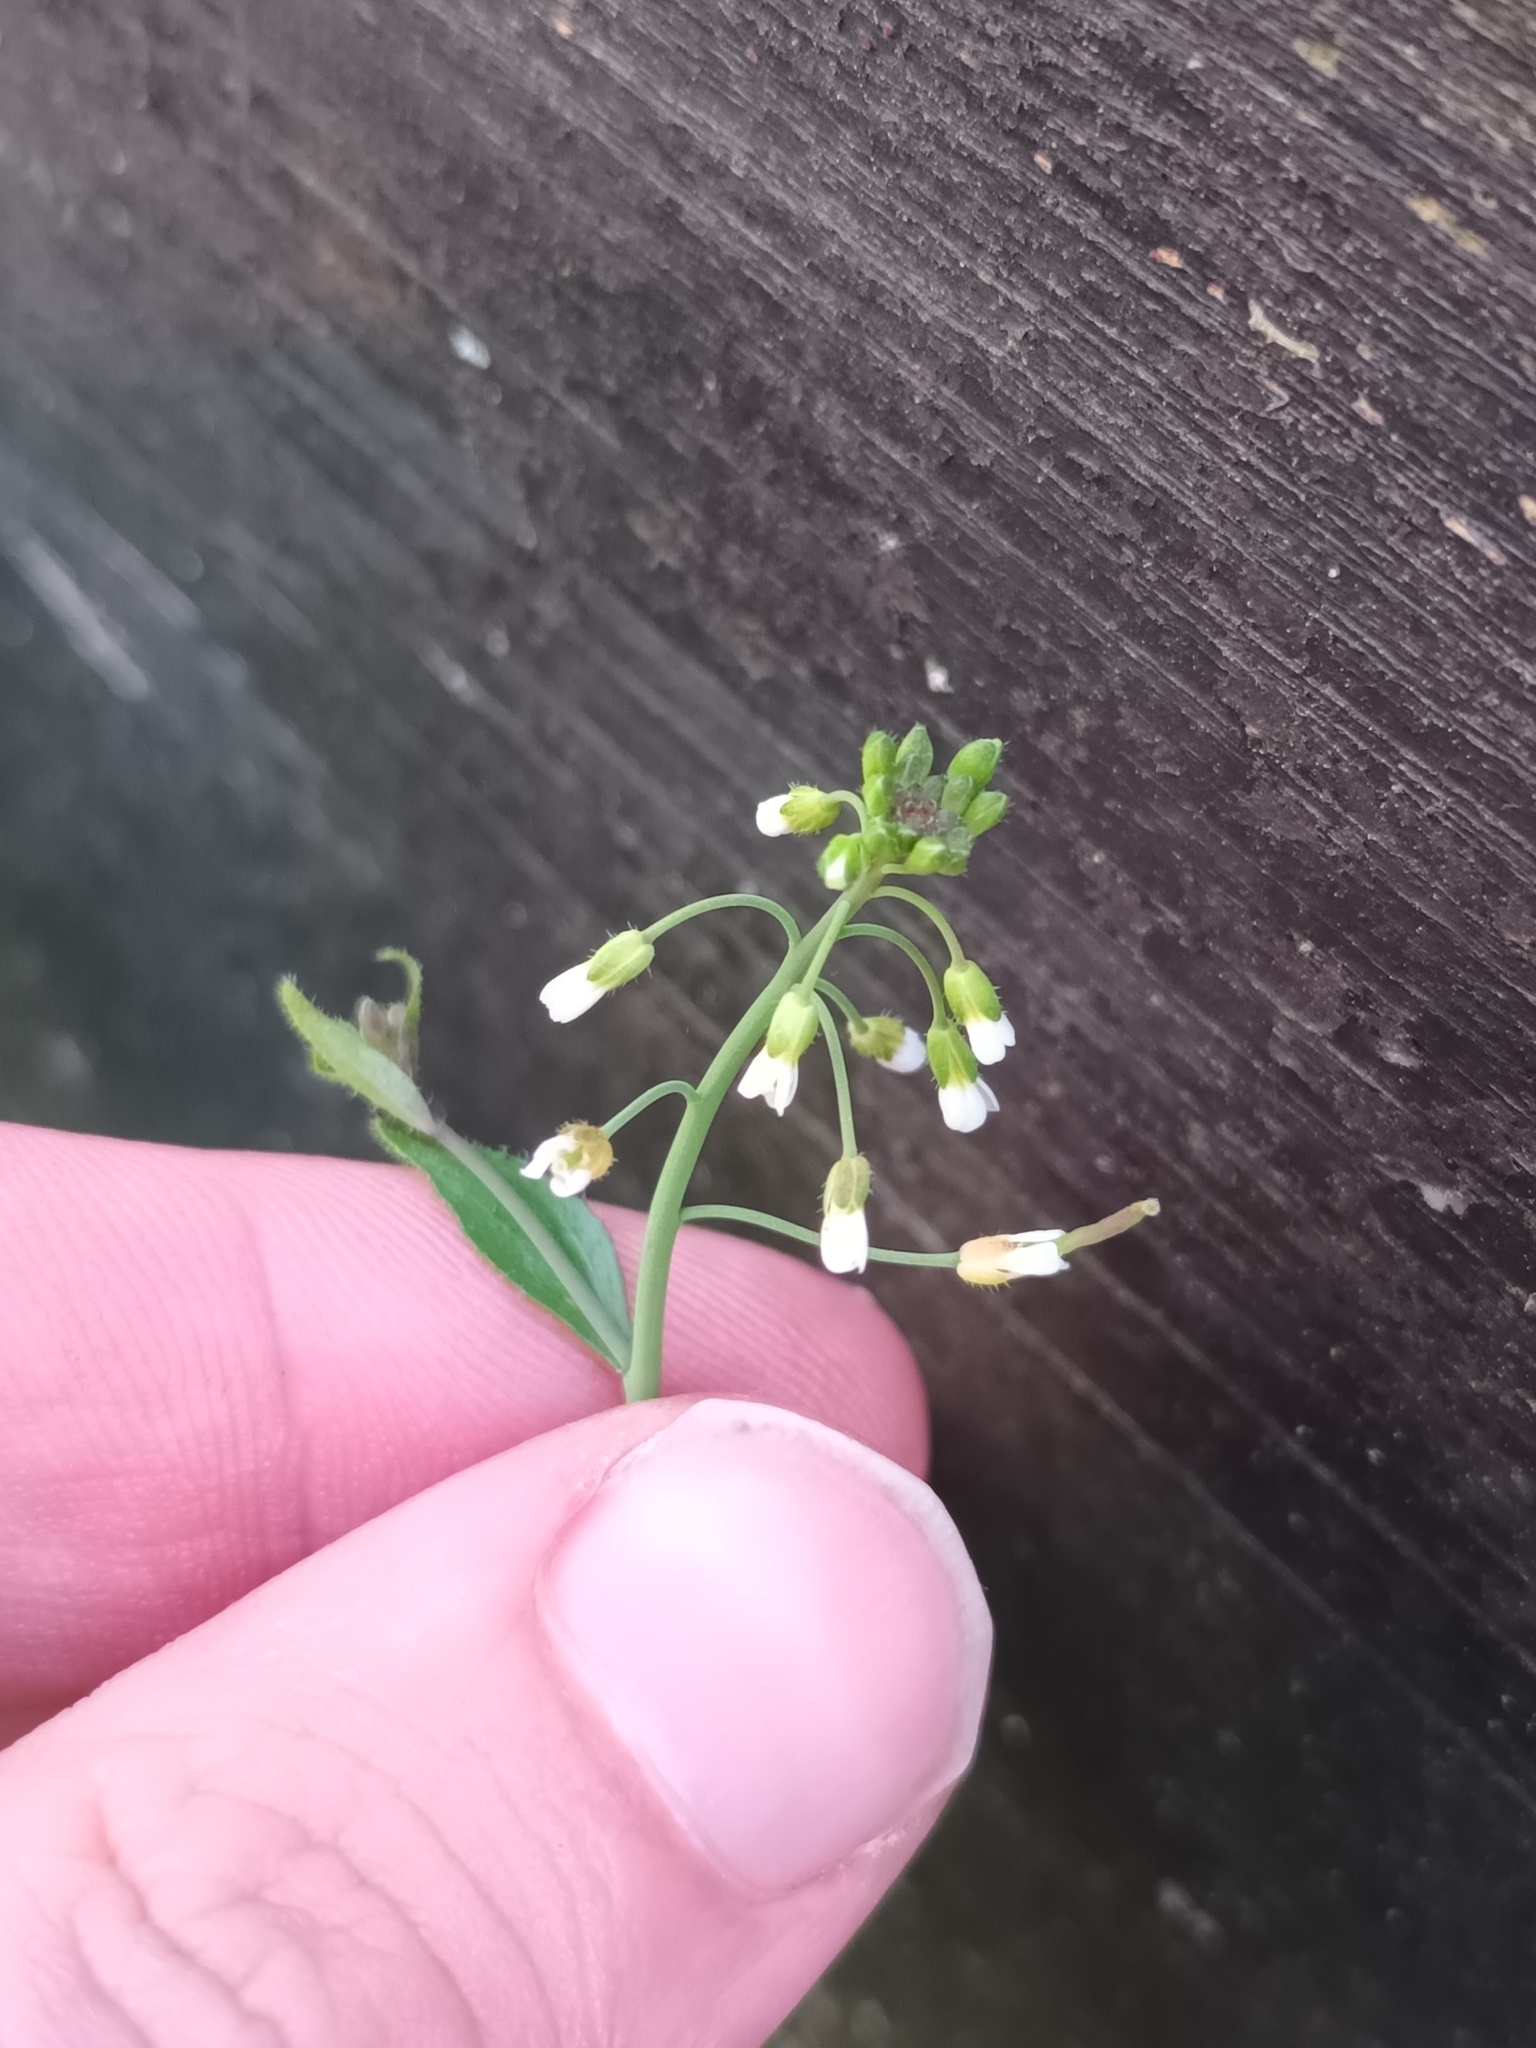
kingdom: Plantae
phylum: Tracheophyta
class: Magnoliopsida
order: Brassicales
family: Brassicaceae
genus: Arabidopsis
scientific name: Arabidopsis thaliana
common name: Thale cress
